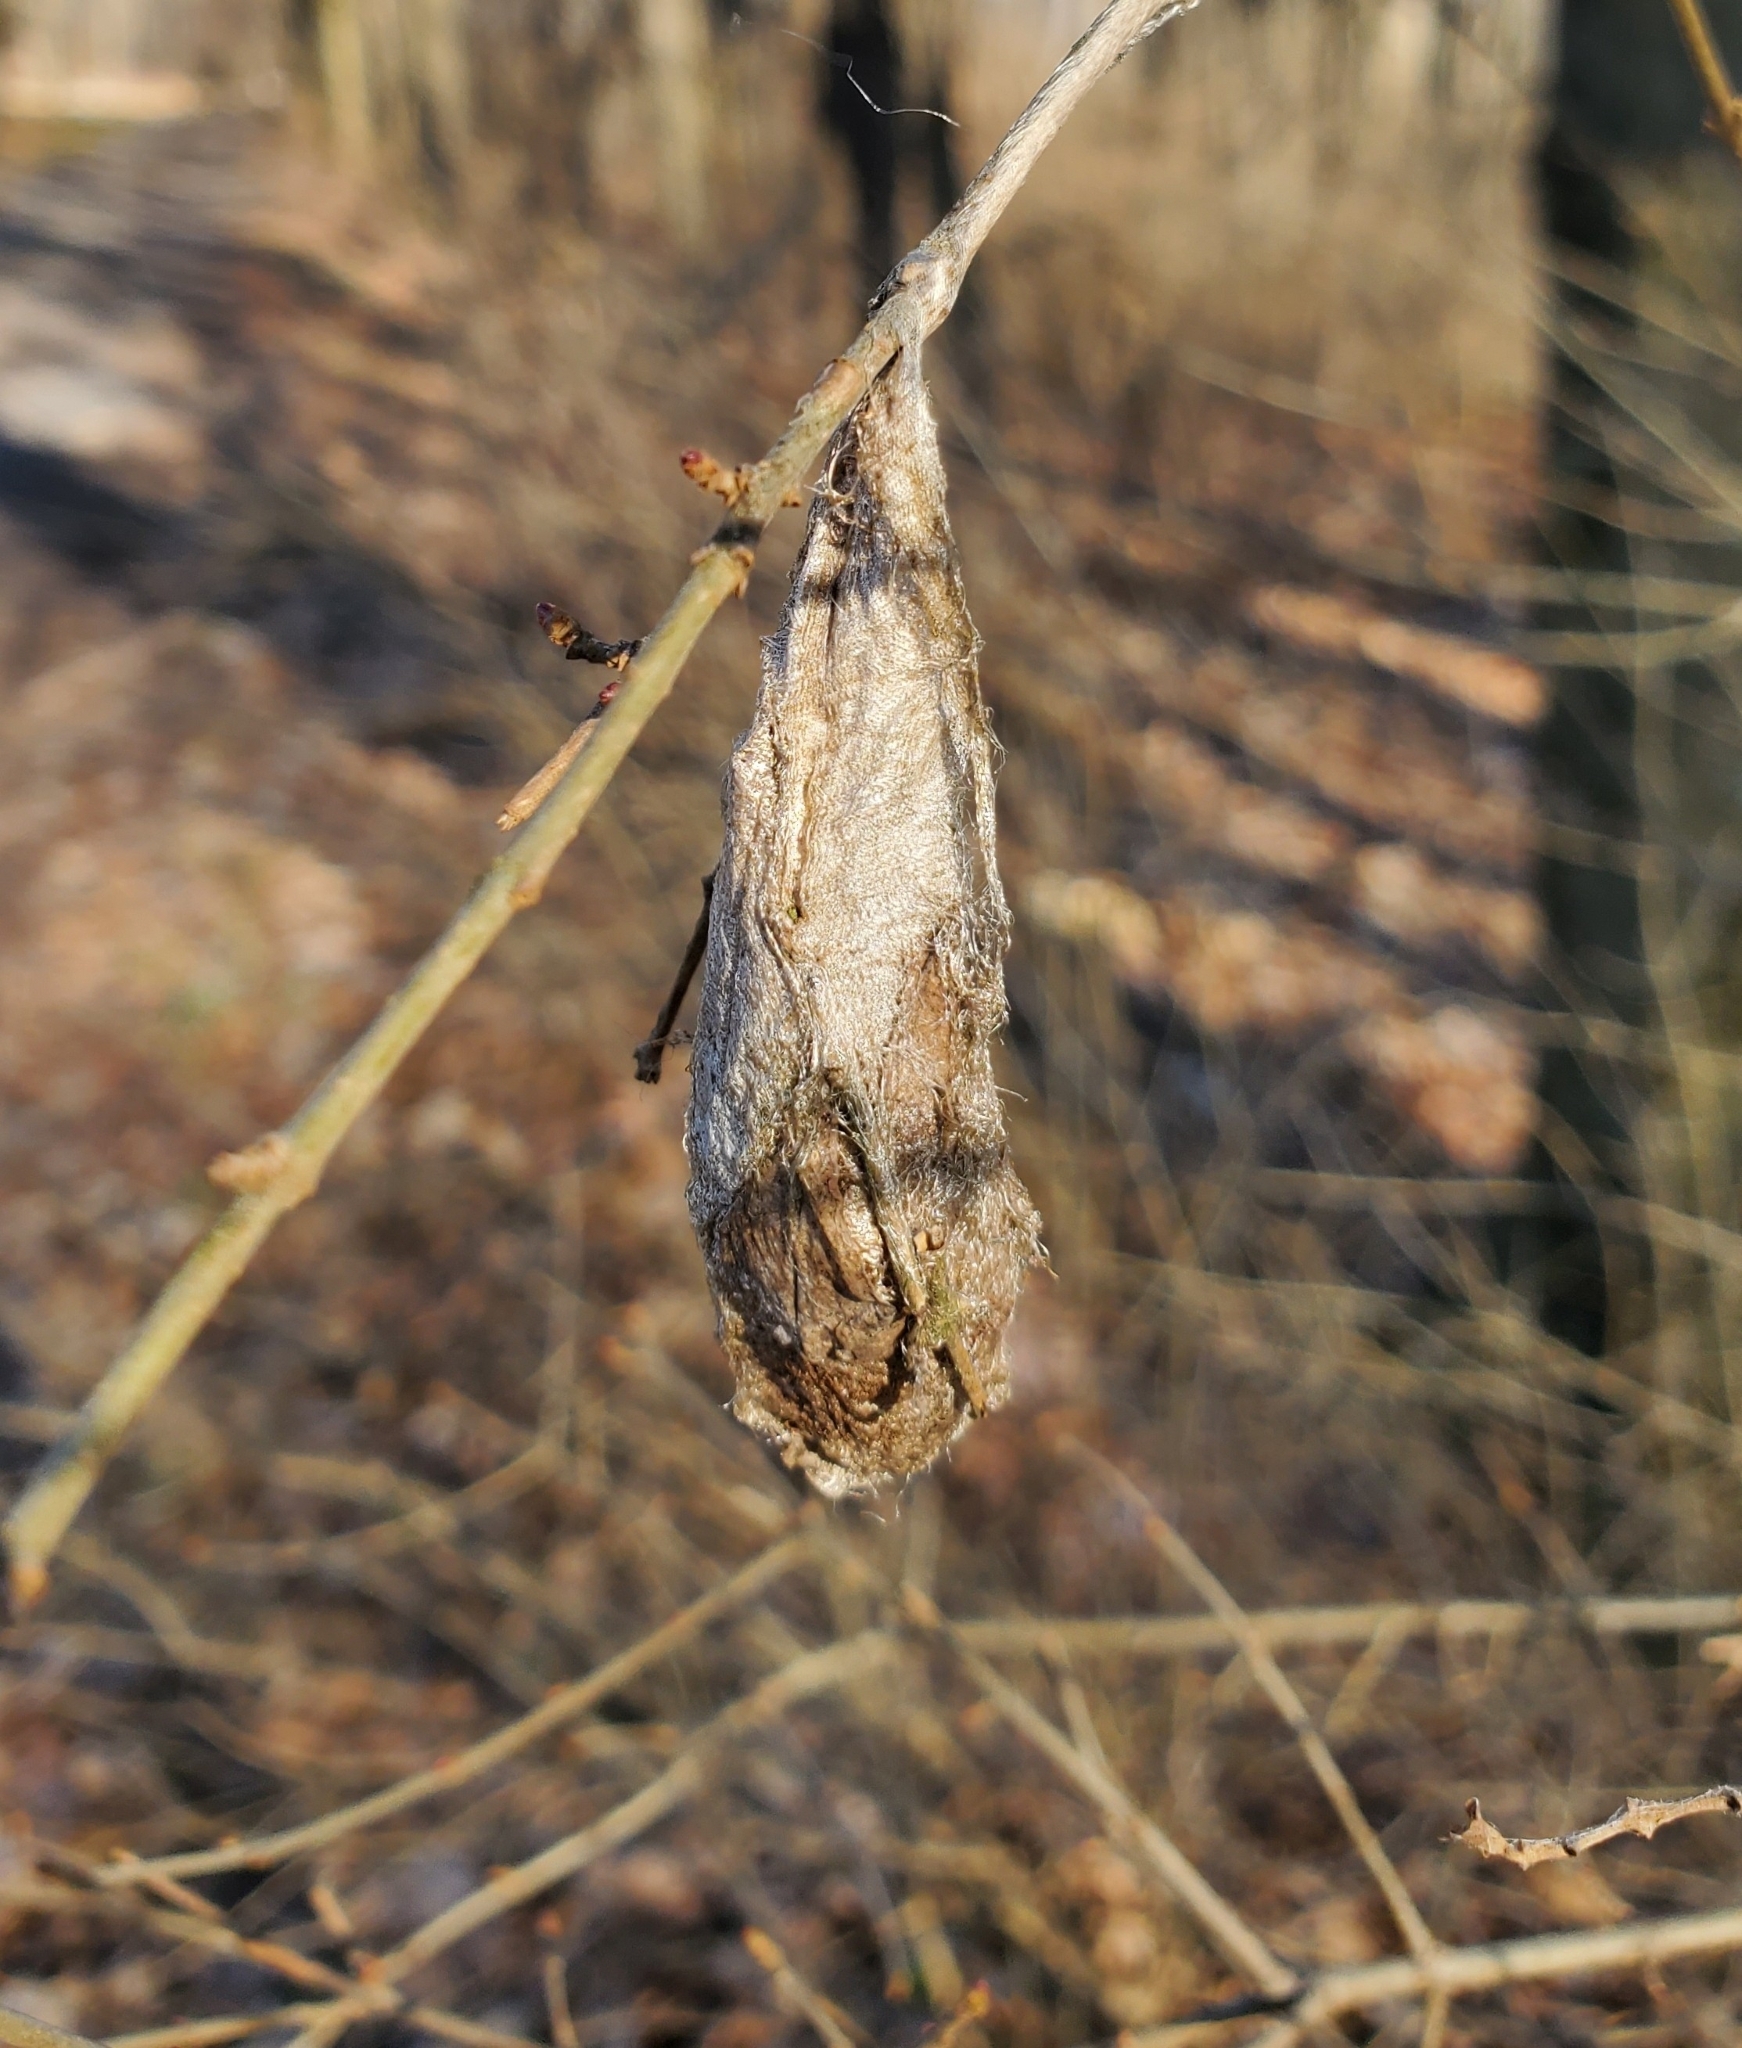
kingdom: Animalia
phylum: Arthropoda
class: Insecta
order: Lepidoptera
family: Saturniidae
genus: Callosamia
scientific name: Callosamia promethea
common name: Promethea silkmoth
